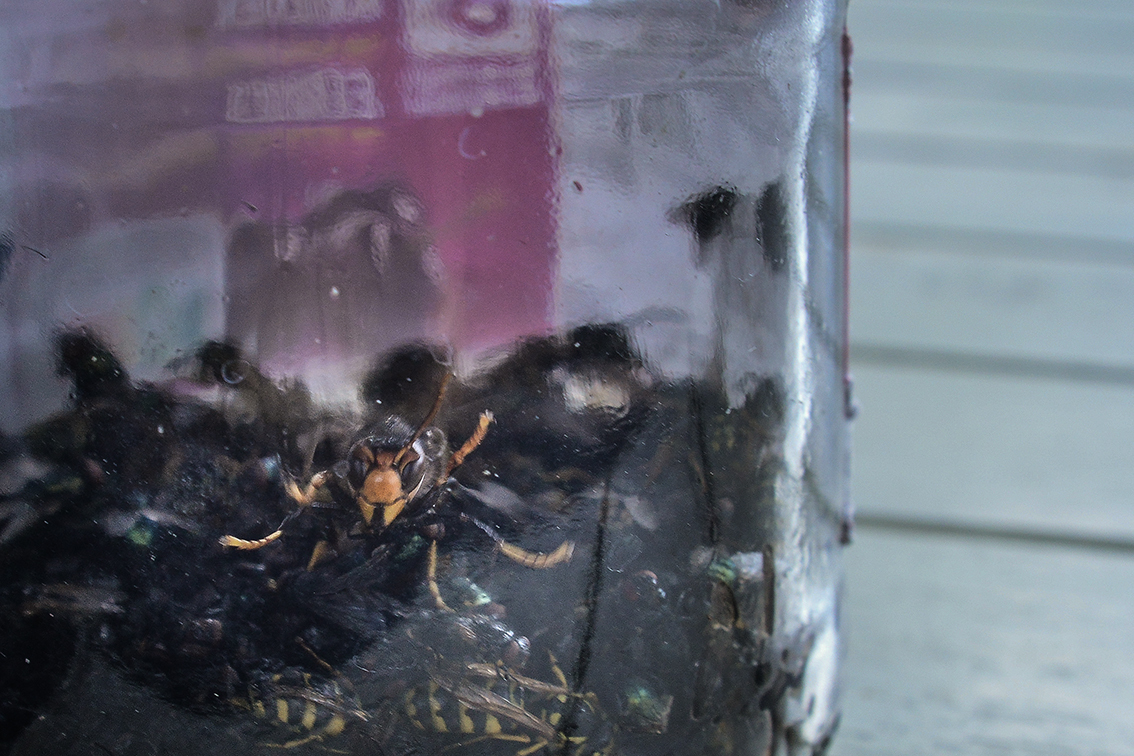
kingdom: Animalia
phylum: Arthropoda
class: Insecta
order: Hymenoptera
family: Vespidae
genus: Vespa
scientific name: Vespa velutina
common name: Asian hornet
